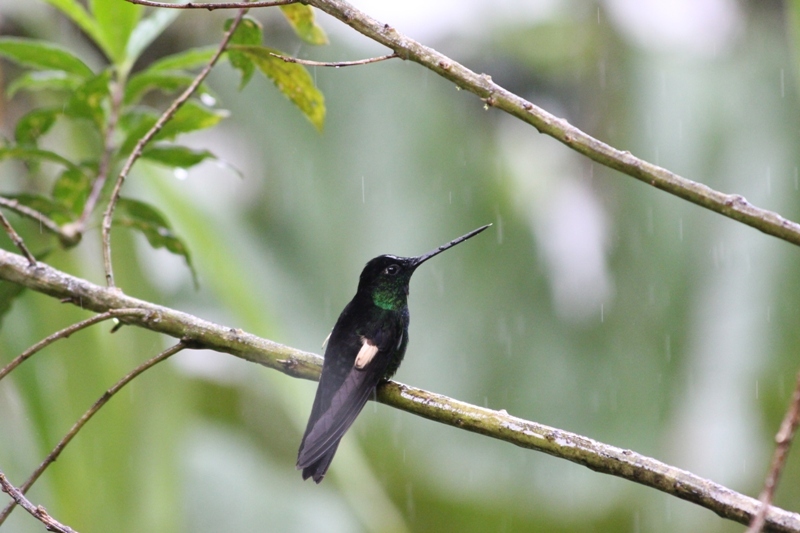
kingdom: Animalia
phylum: Chordata
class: Aves
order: Apodiformes
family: Trochilidae
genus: Coeligena
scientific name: Coeligena lutetiae
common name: Buff-winged starfrontlet
